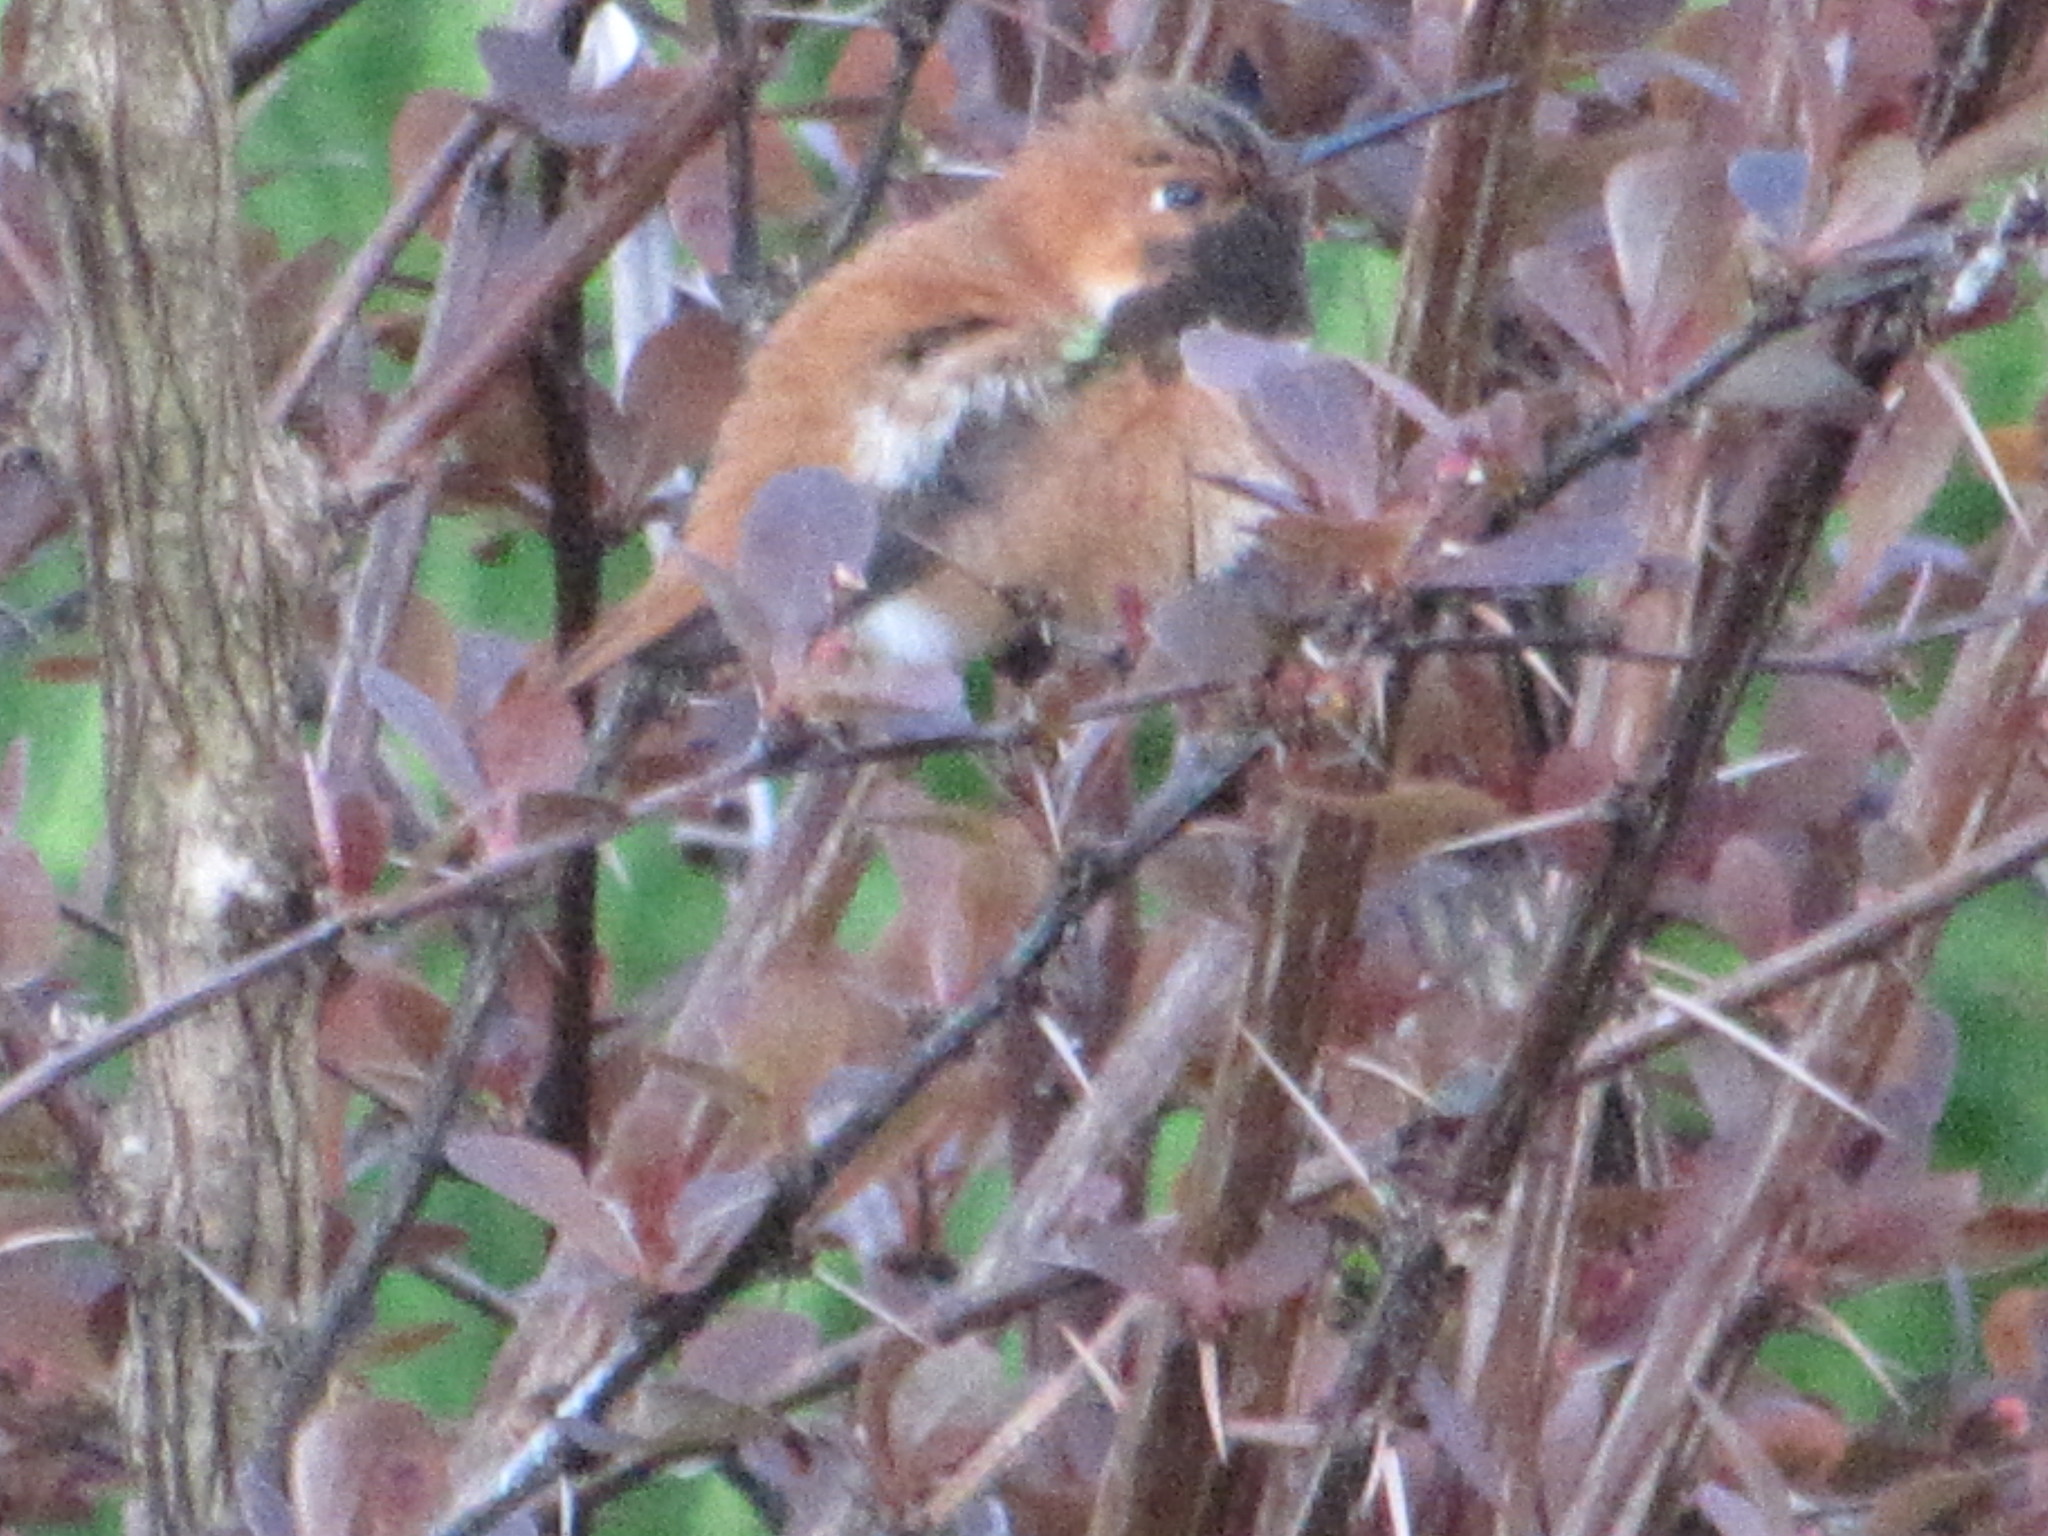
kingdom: Animalia
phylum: Chordata
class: Aves
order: Apodiformes
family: Trochilidae
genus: Selasphorus
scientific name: Selasphorus rufus
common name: Rufous hummingbird
